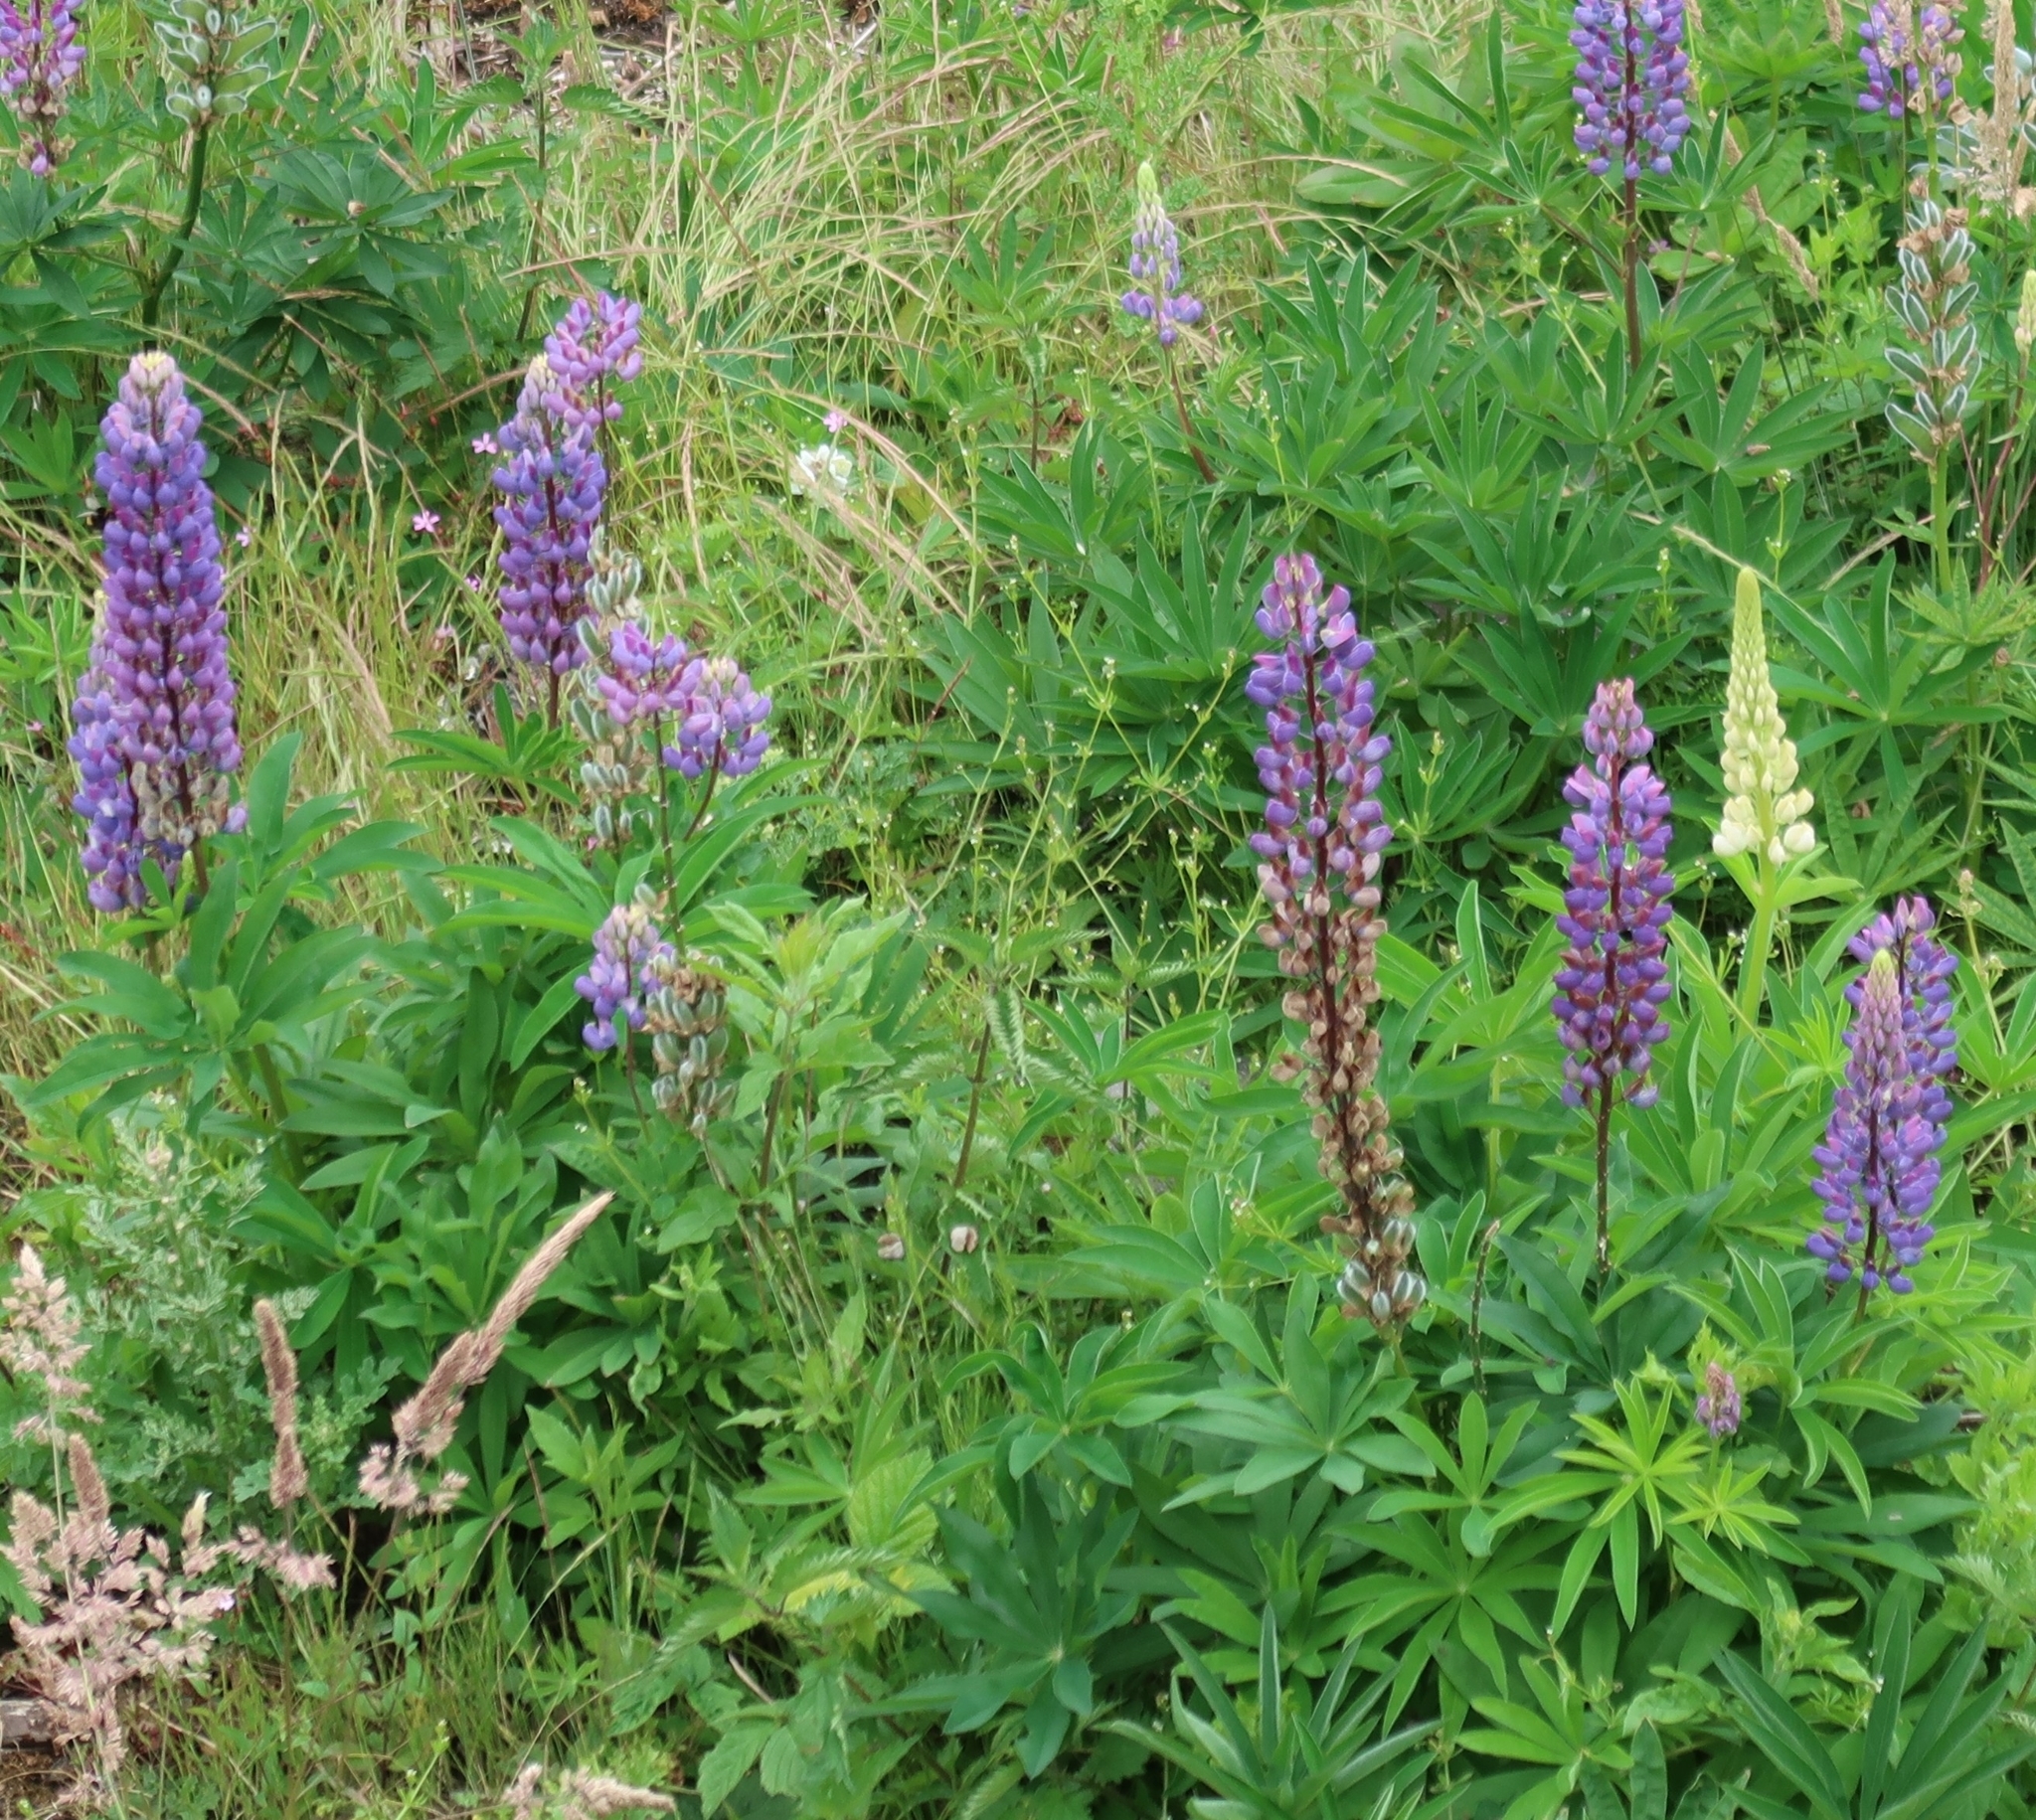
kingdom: Plantae
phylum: Tracheophyta
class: Magnoliopsida
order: Fabales
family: Fabaceae
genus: Lupinus
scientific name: Lupinus polyphyllus
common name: Garden lupin
